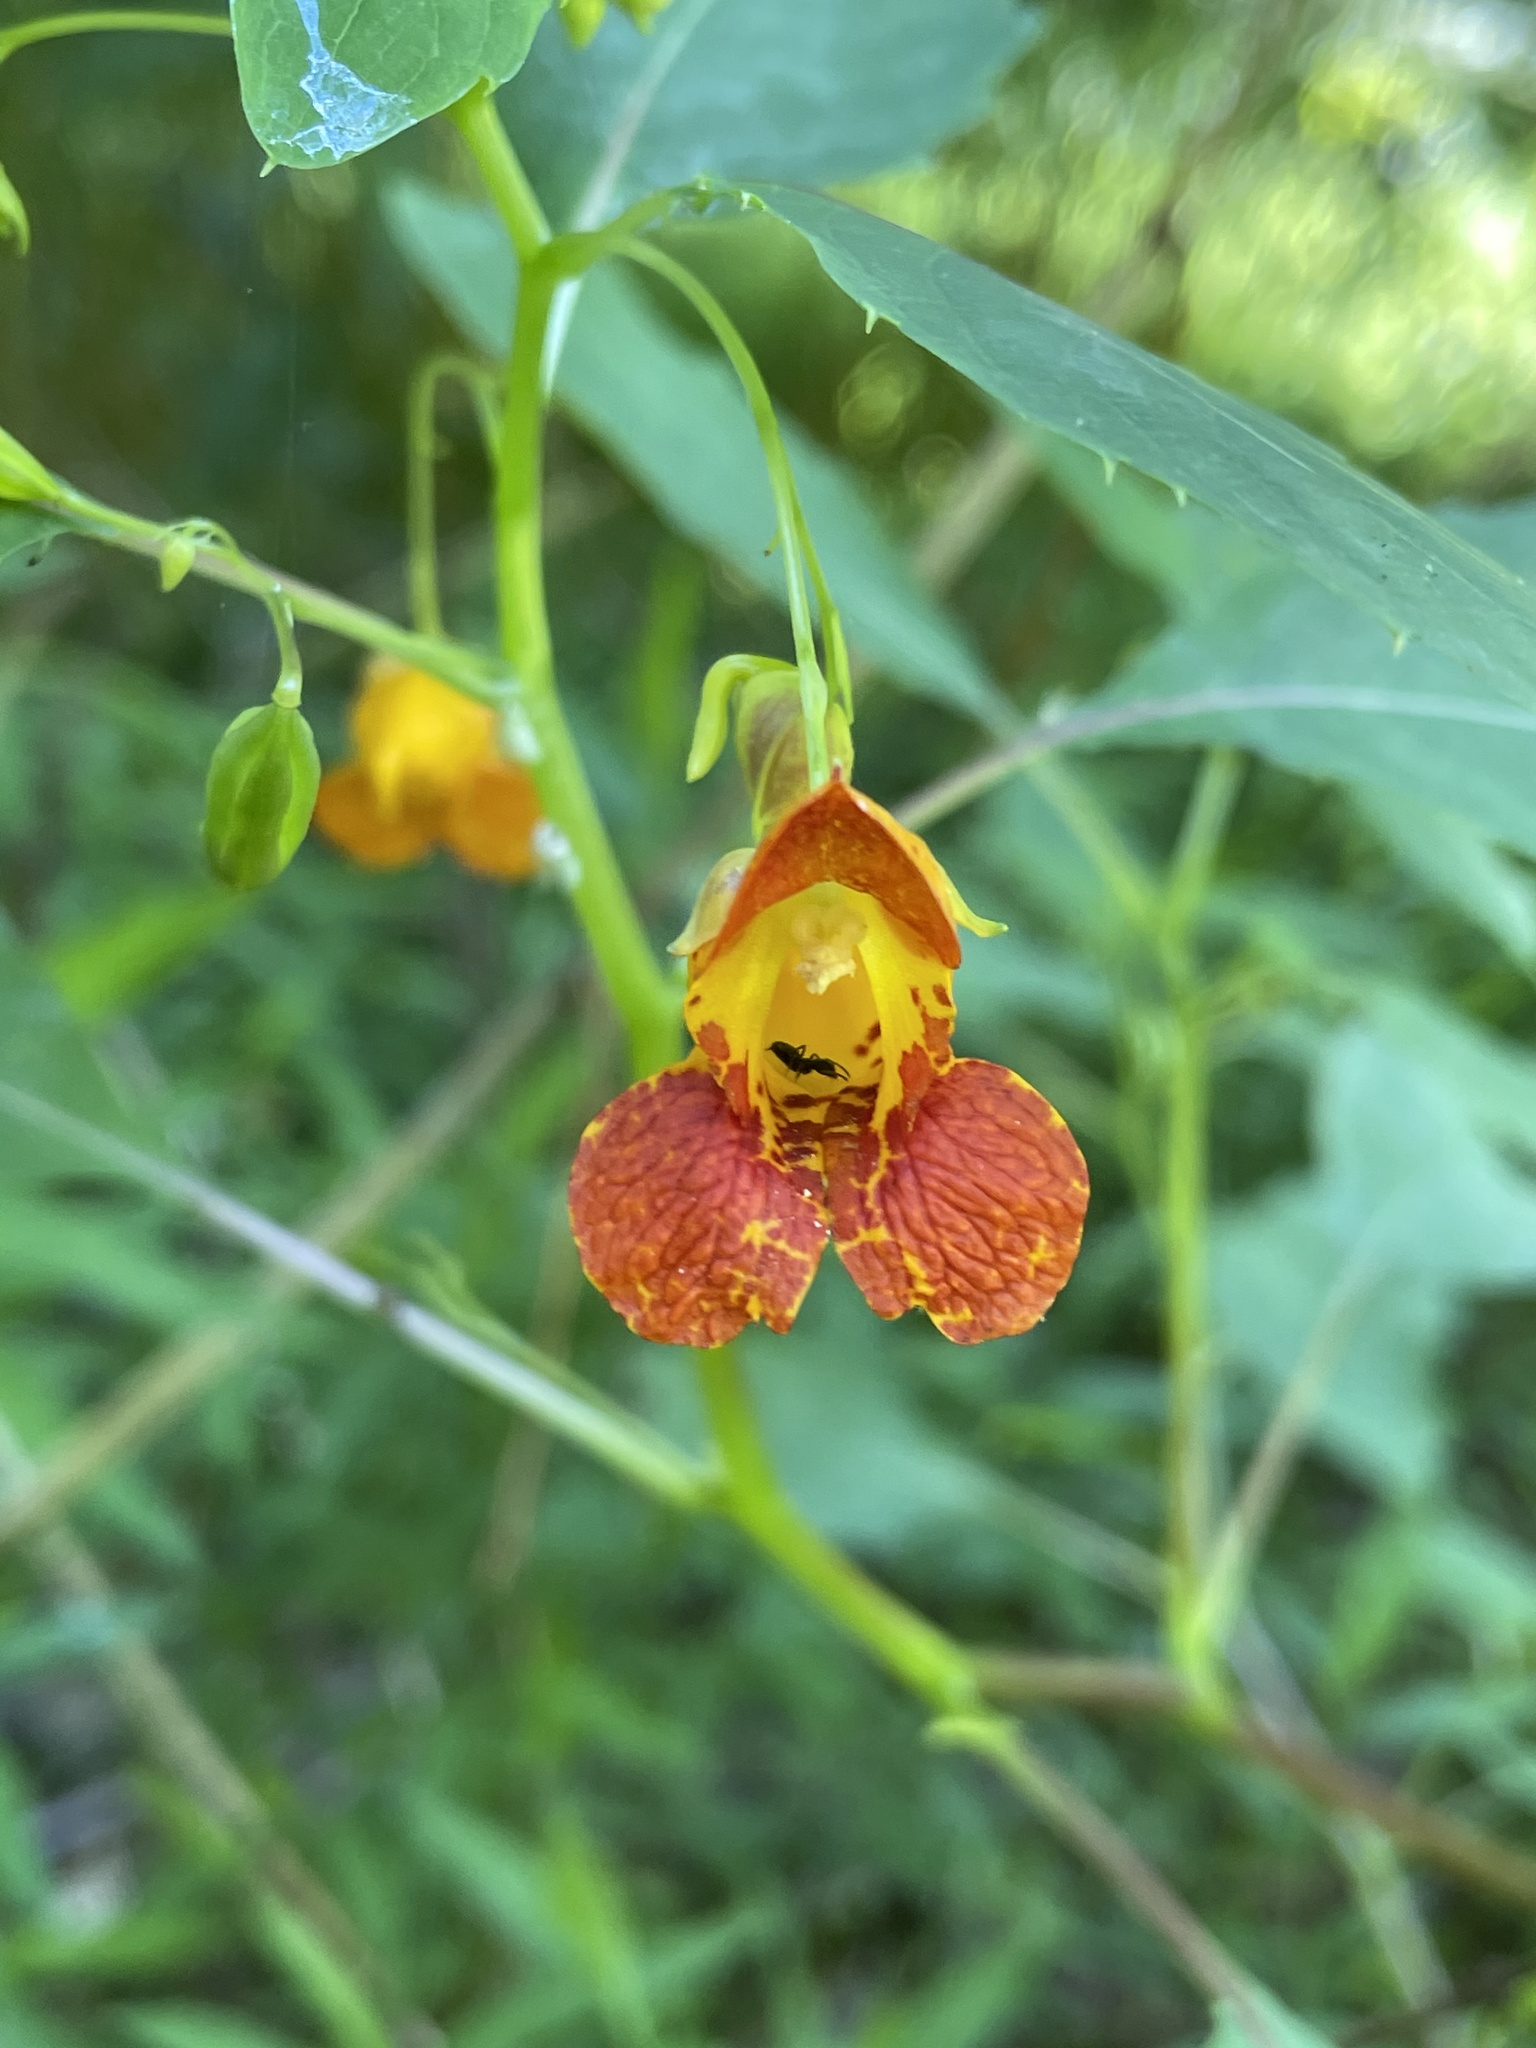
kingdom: Plantae
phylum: Tracheophyta
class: Magnoliopsida
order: Ericales
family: Balsaminaceae
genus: Impatiens
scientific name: Impatiens capensis
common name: Orange balsam
